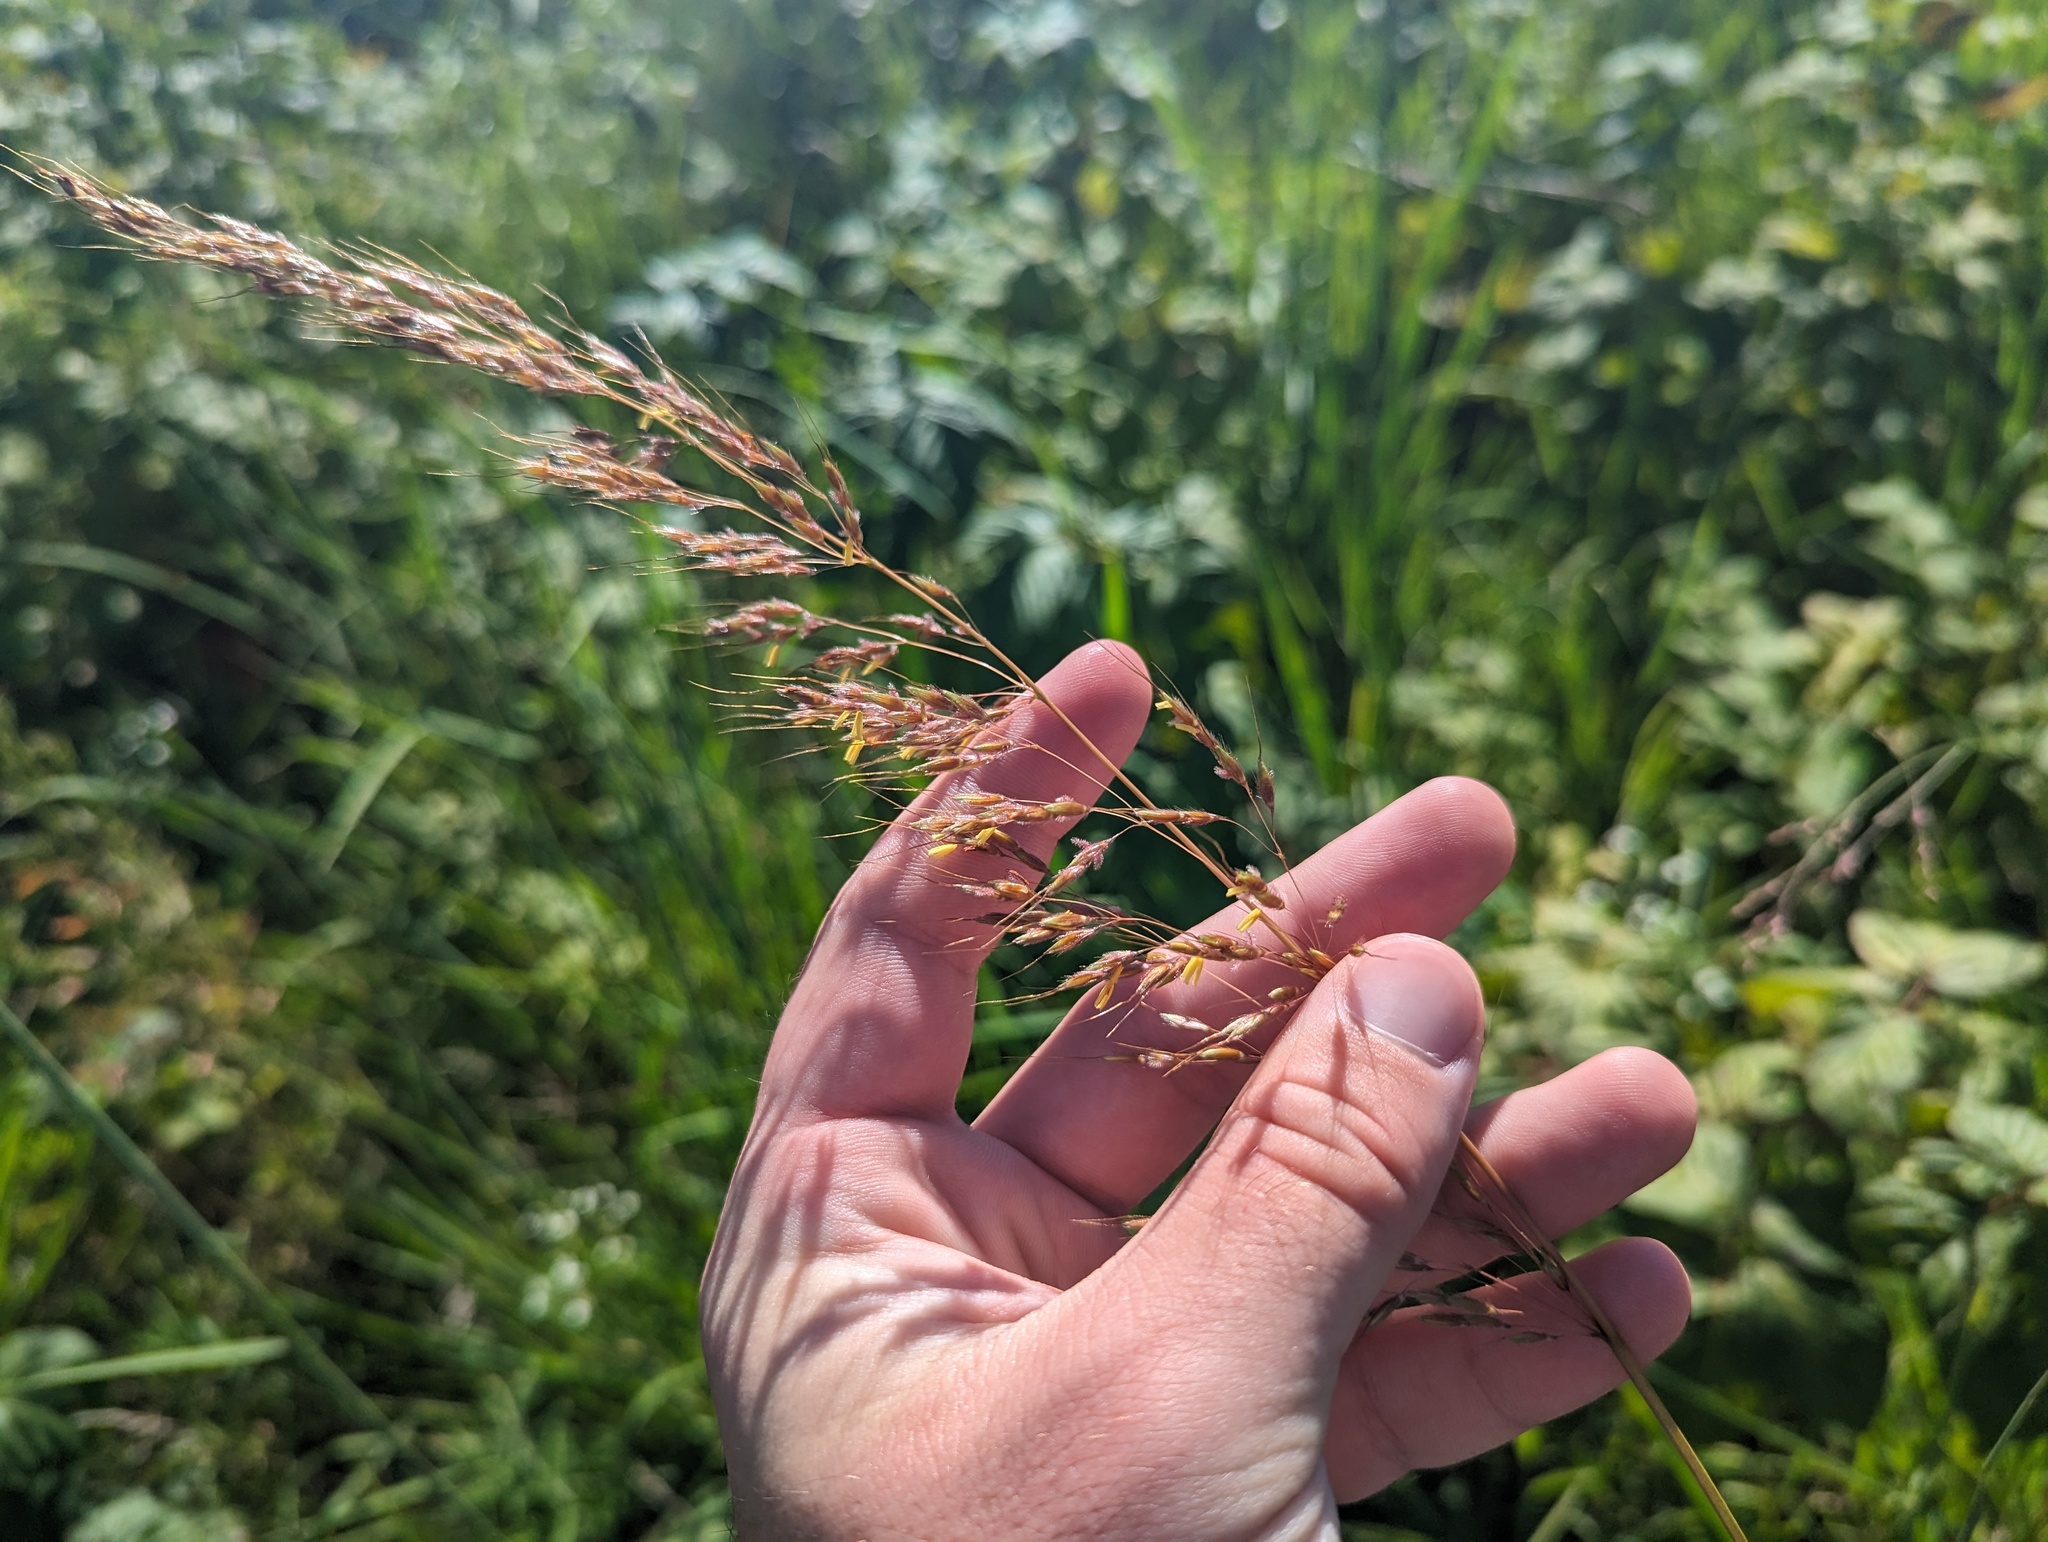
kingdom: Plantae
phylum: Tracheophyta
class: Liliopsida
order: Poales
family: Poaceae
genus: Sorghastrum
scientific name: Sorghastrum nutans
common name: Indian grass
